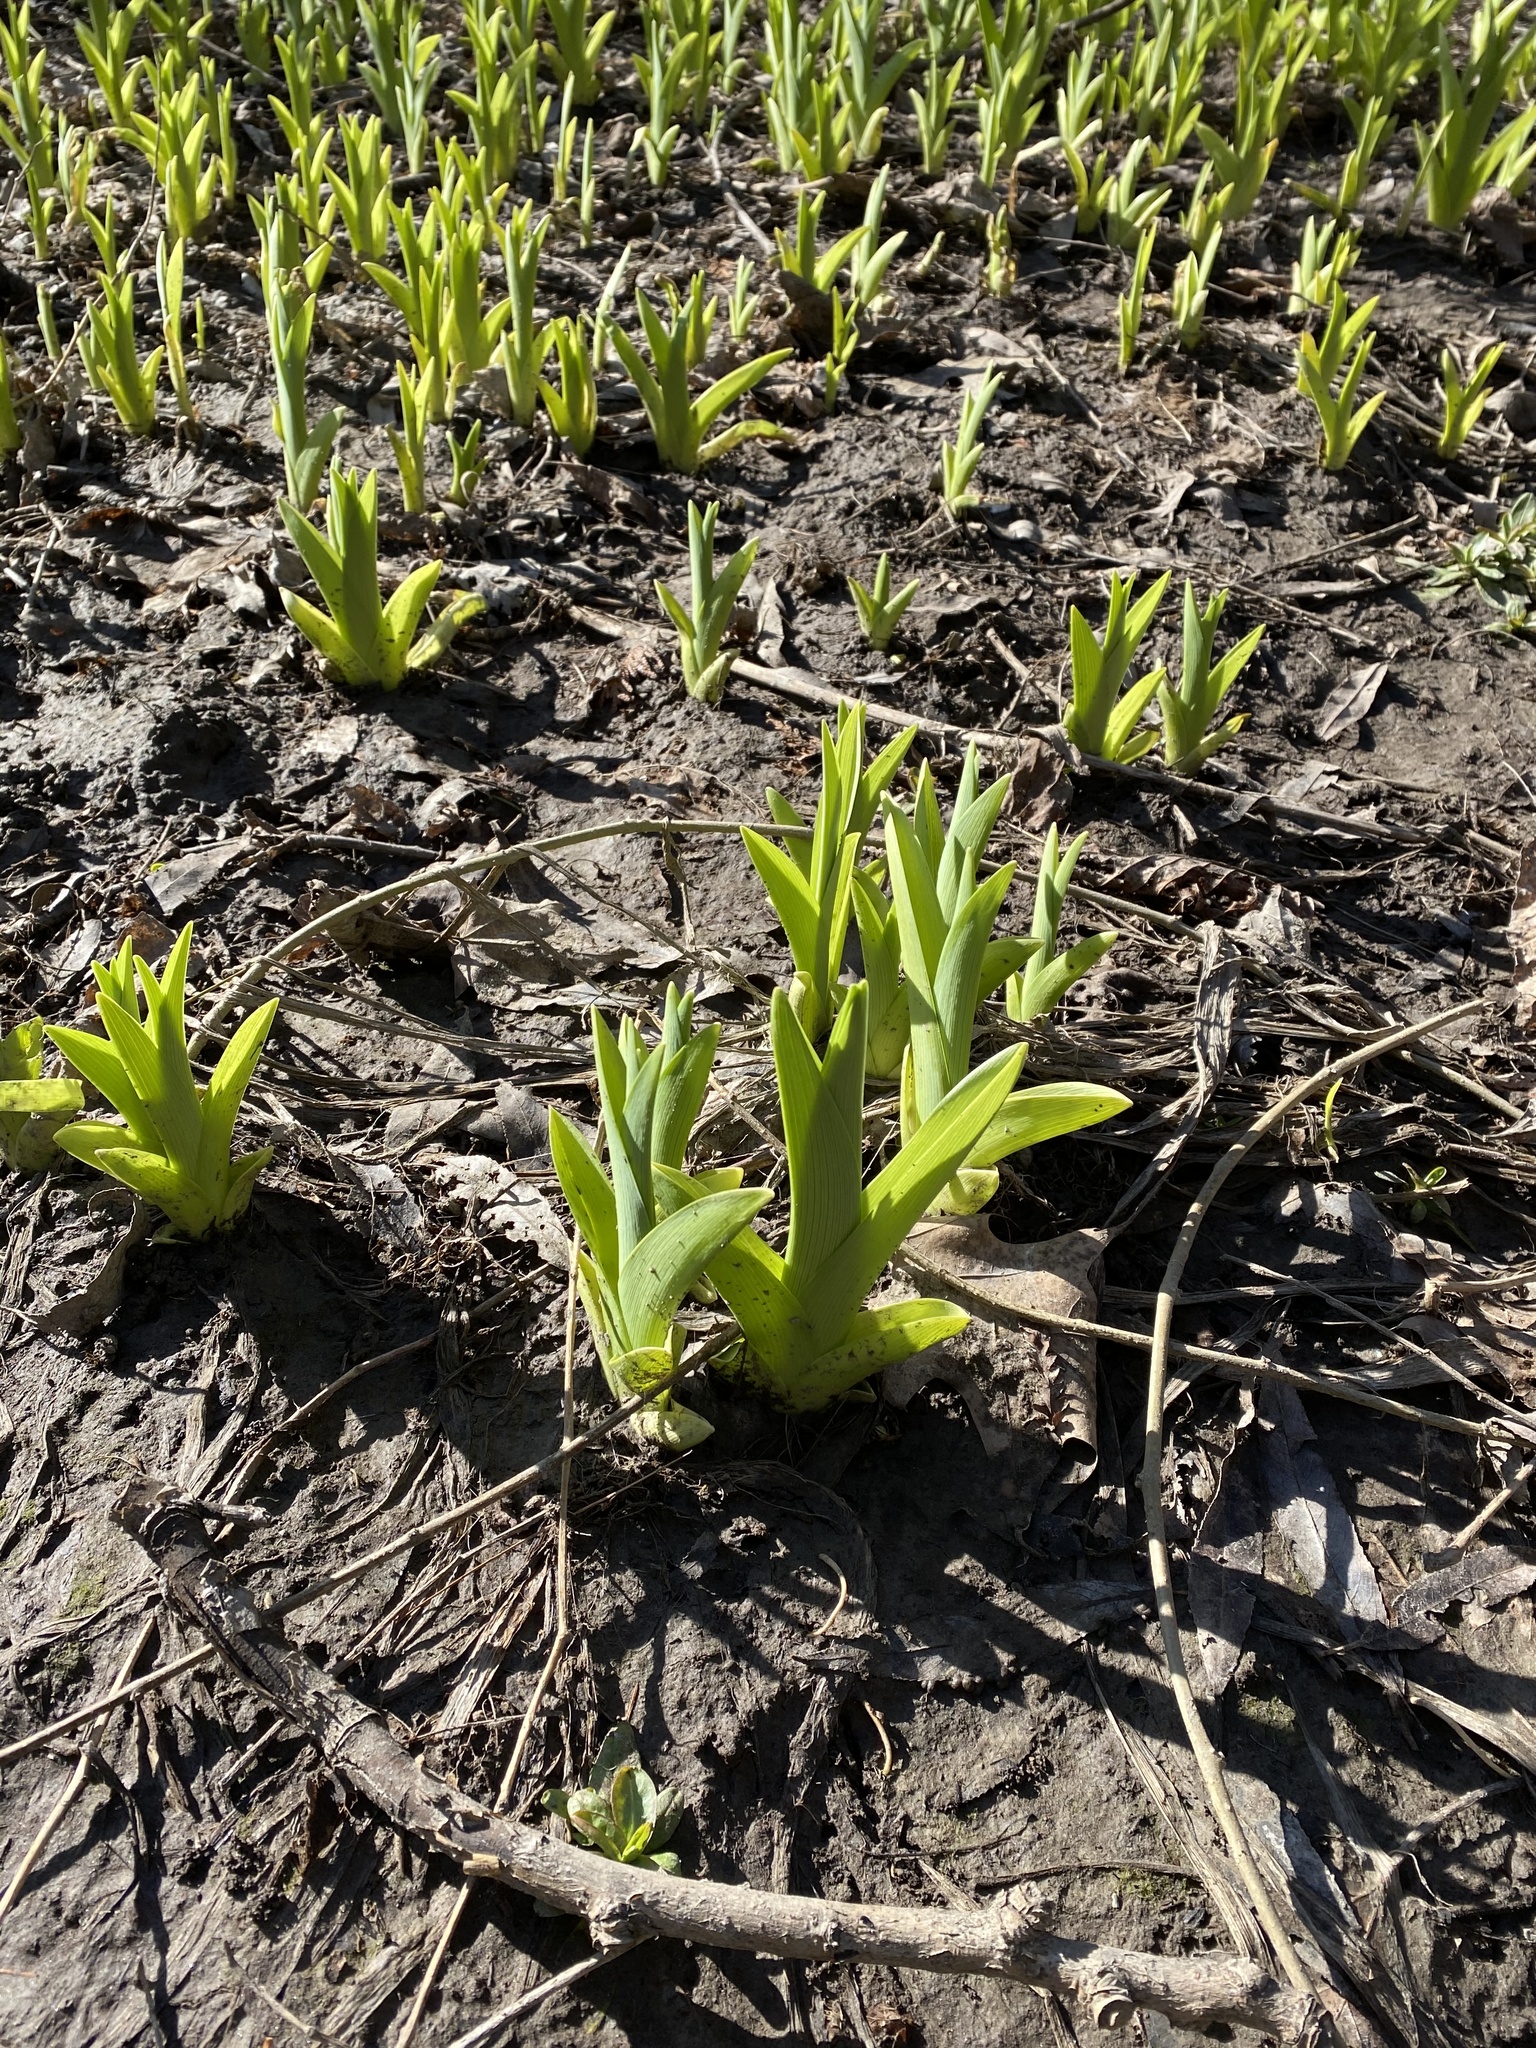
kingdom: Plantae
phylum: Tracheophyta
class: Liliopsida
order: Asparagales
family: Asphodelaceae
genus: Hemerocallis
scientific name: Hemerocallis fulva
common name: Orange day-lily
